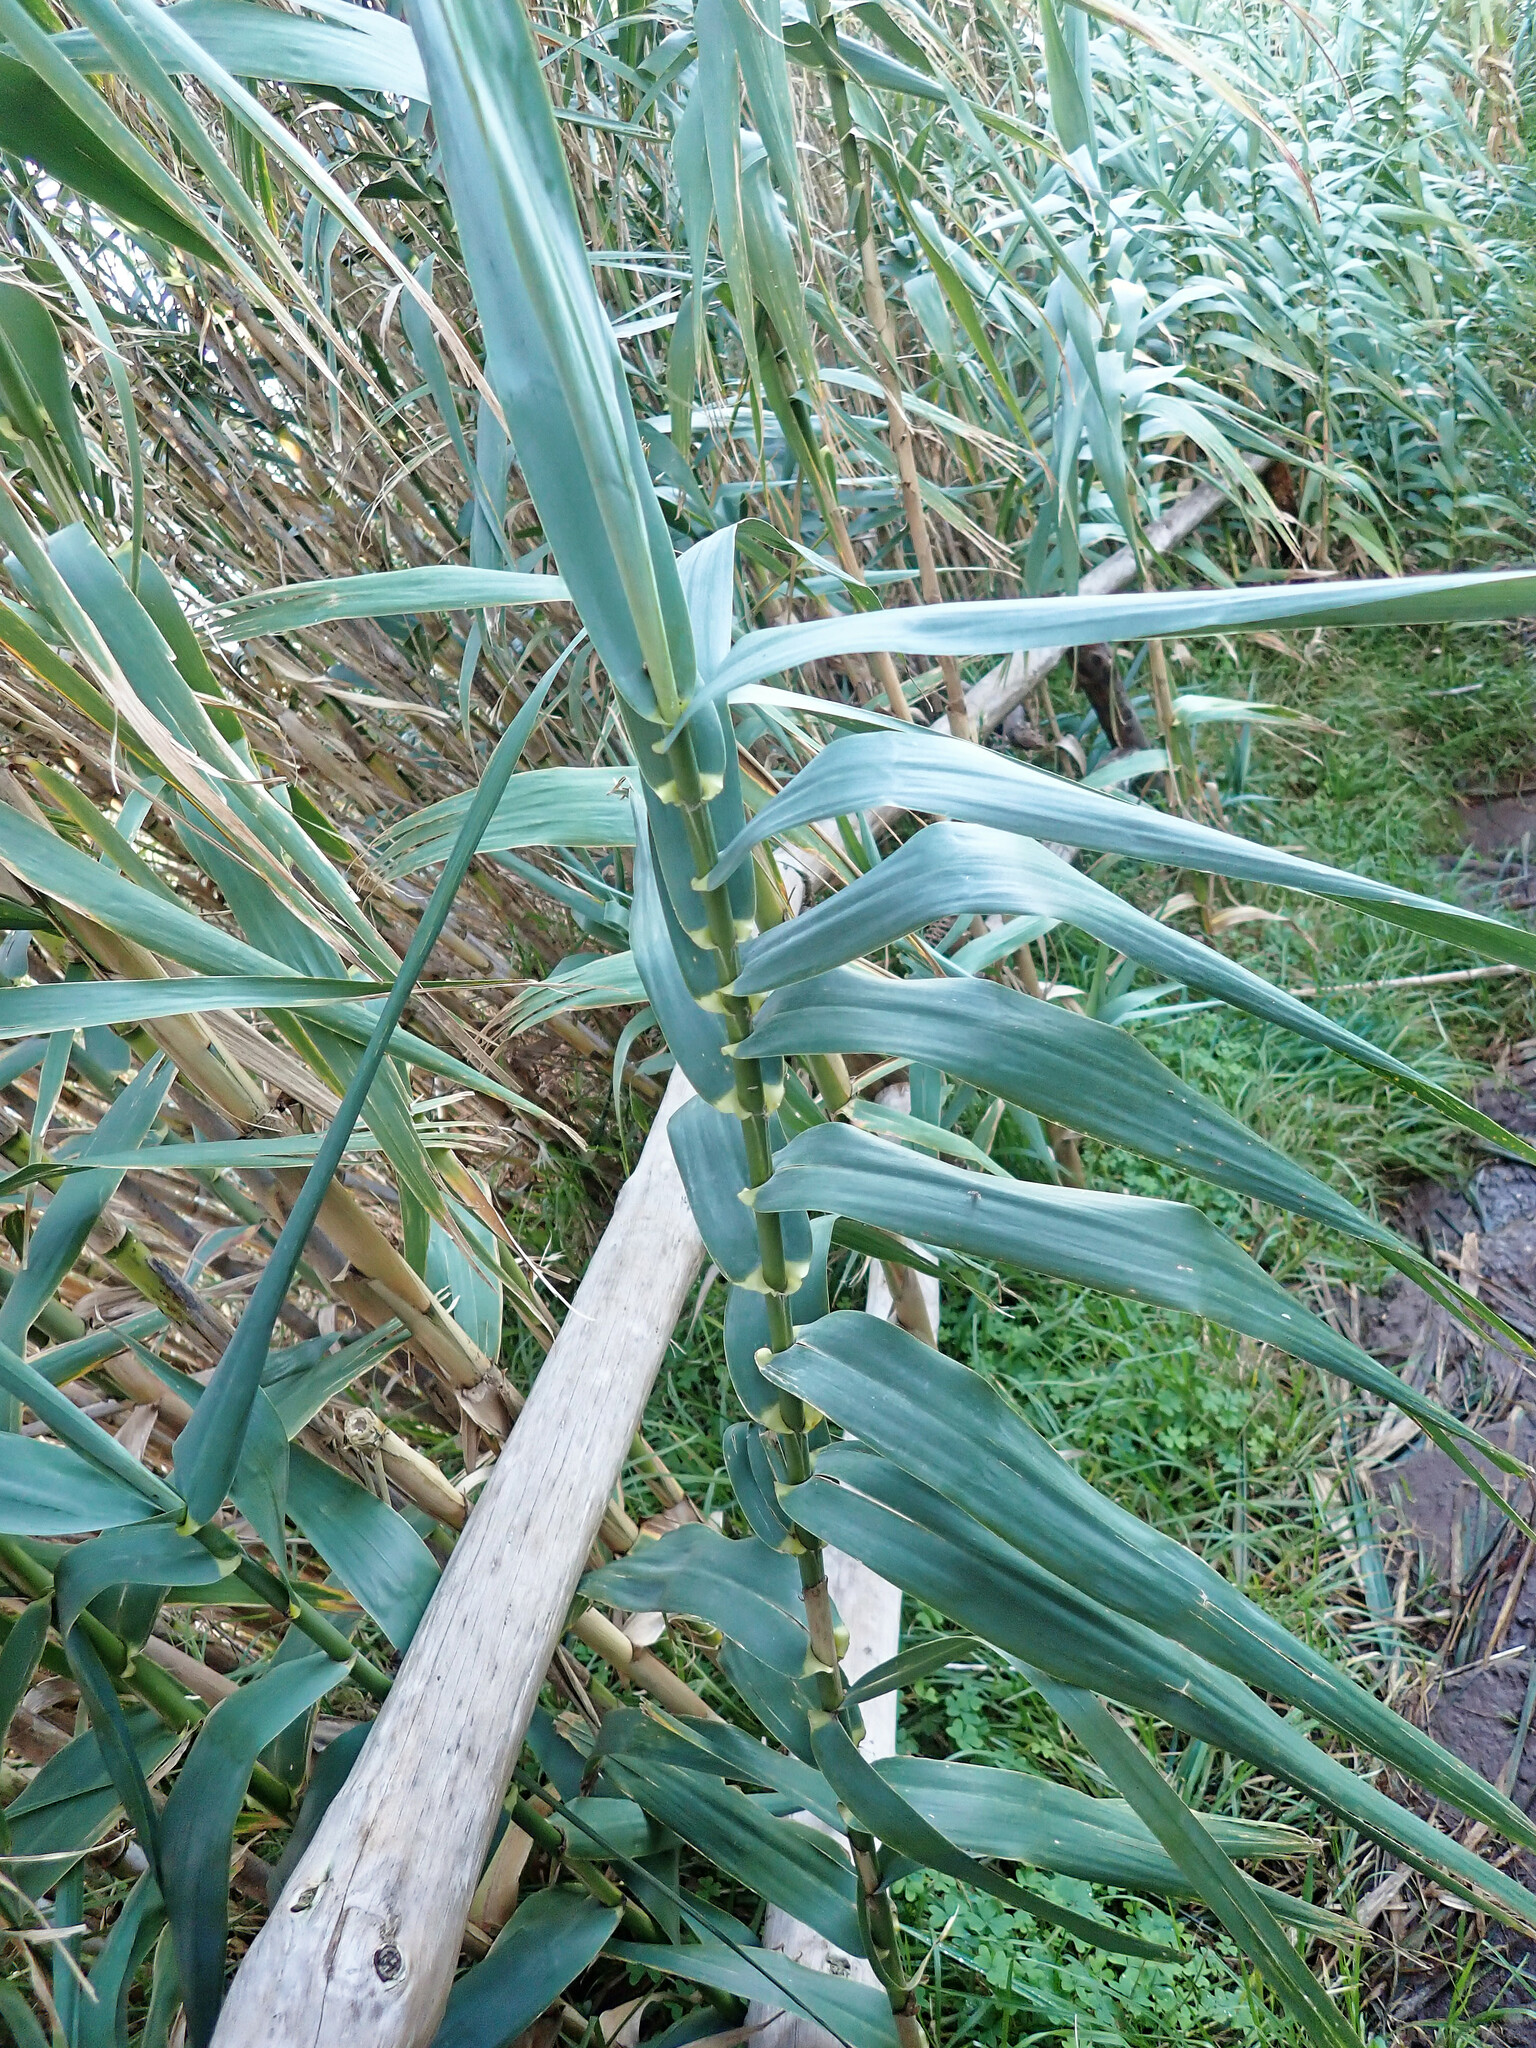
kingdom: Plantae
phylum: Tracheophyta
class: Liliopsida
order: Poales
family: Poaceae
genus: Arundo
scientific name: Arundo donax
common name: Giant reed
